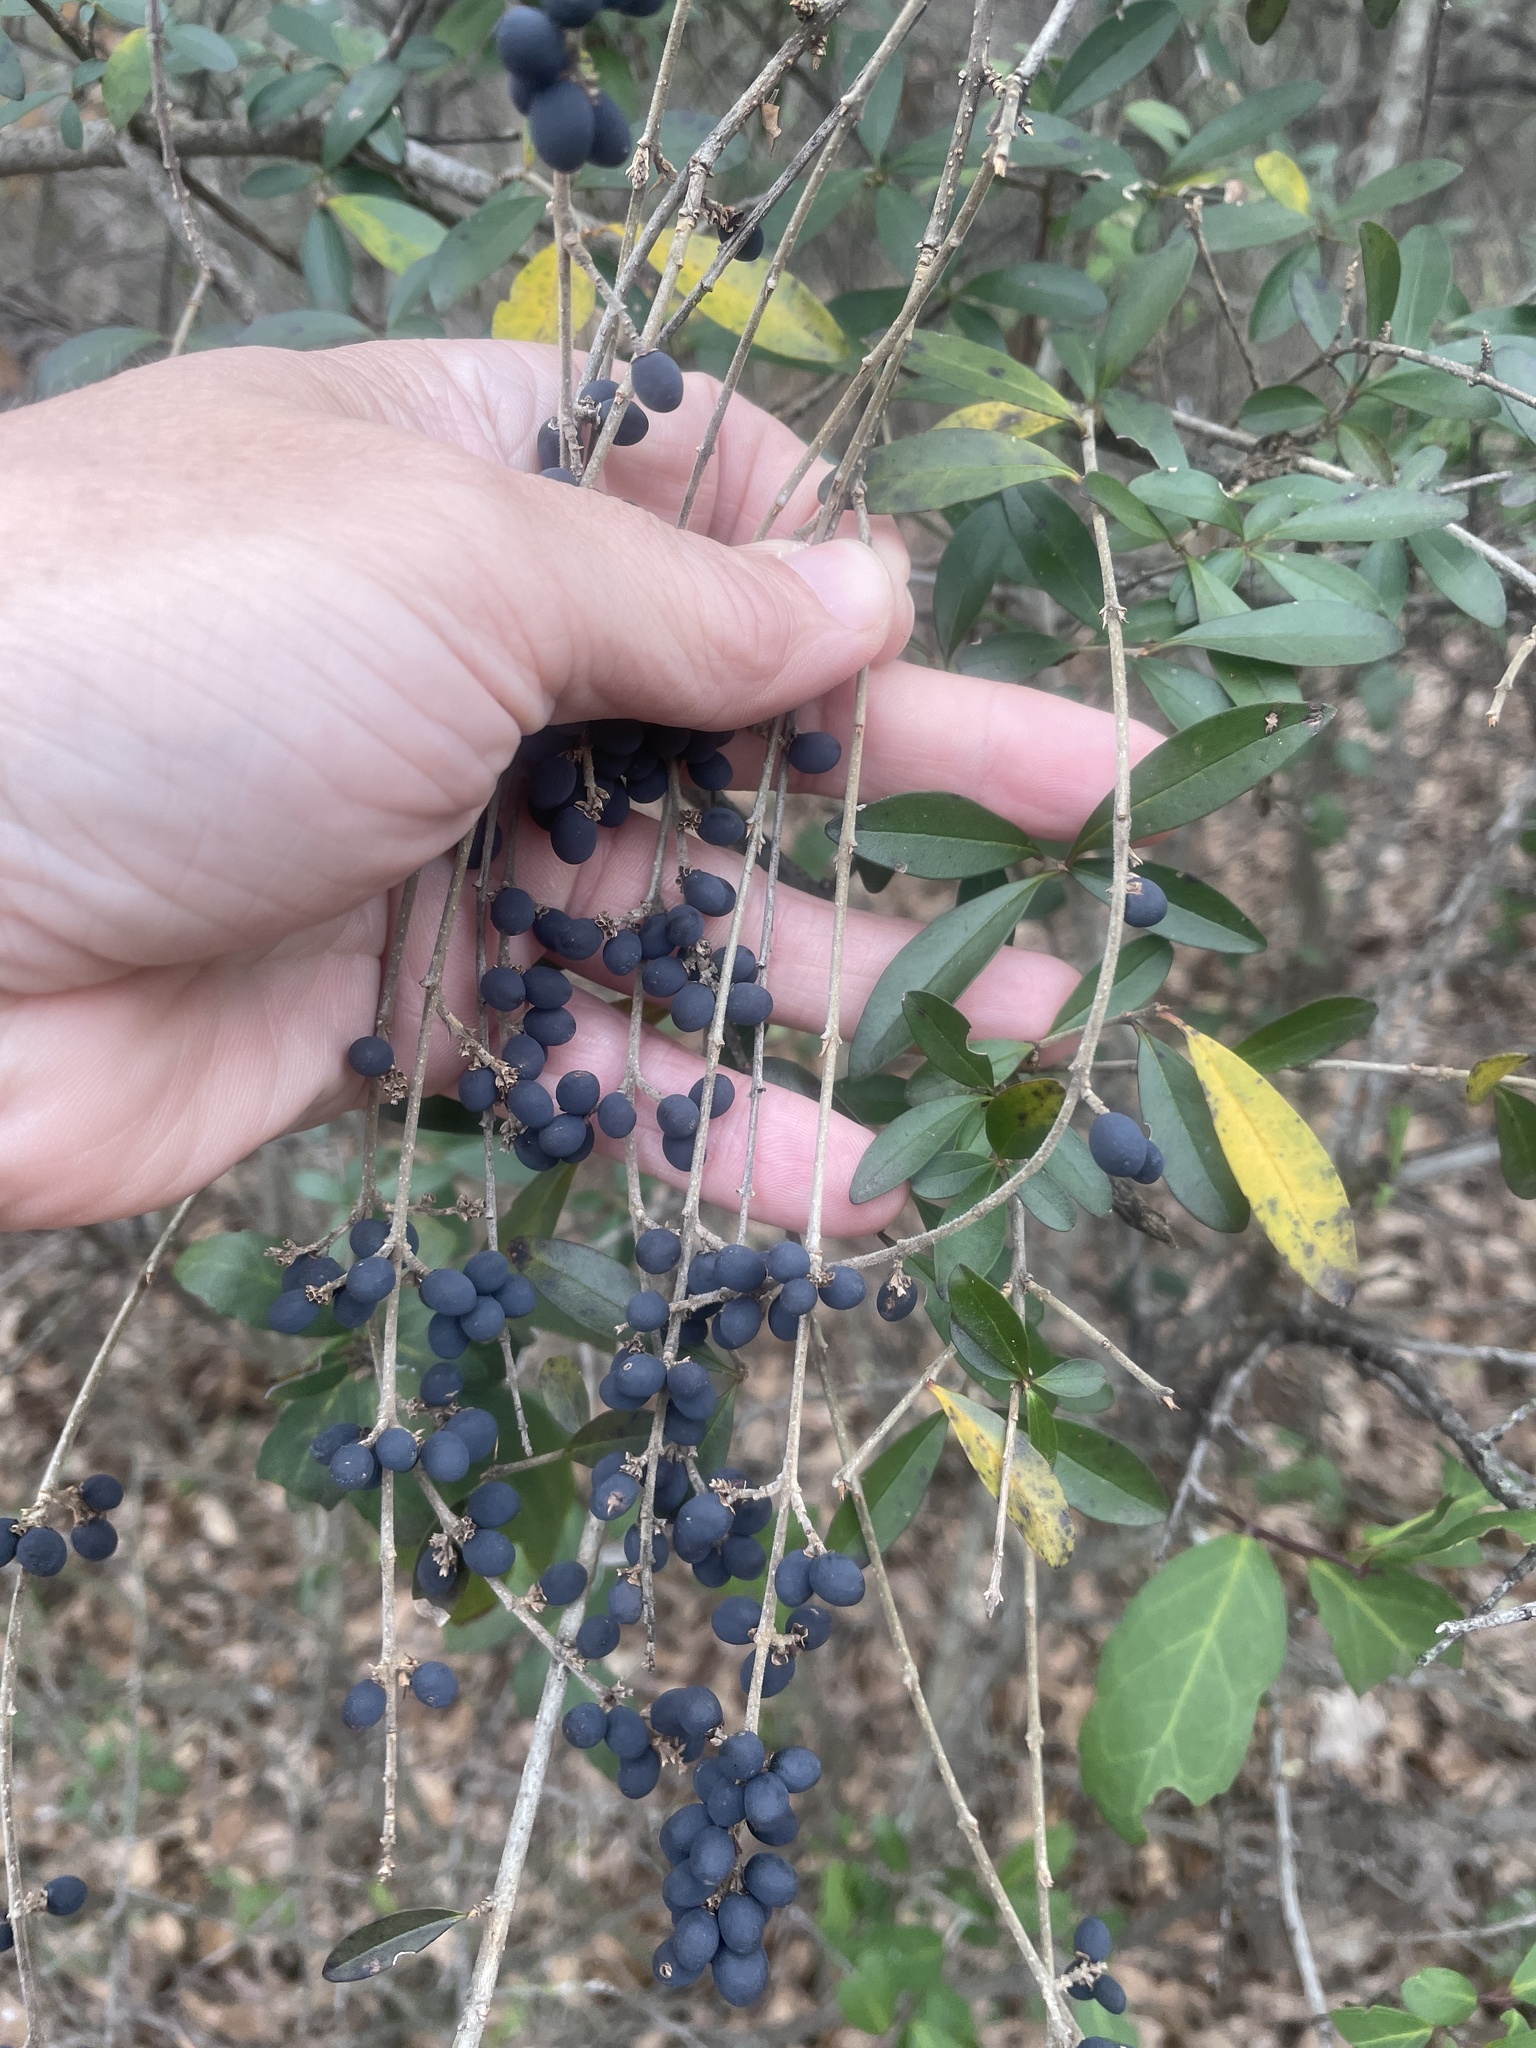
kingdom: Plantae
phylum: Tracheophyta
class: Magnoliopsida
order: Lamiales
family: Oleaceae
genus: Ligustrum
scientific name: Ligustrum quihoui
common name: Waxyleaf privet
